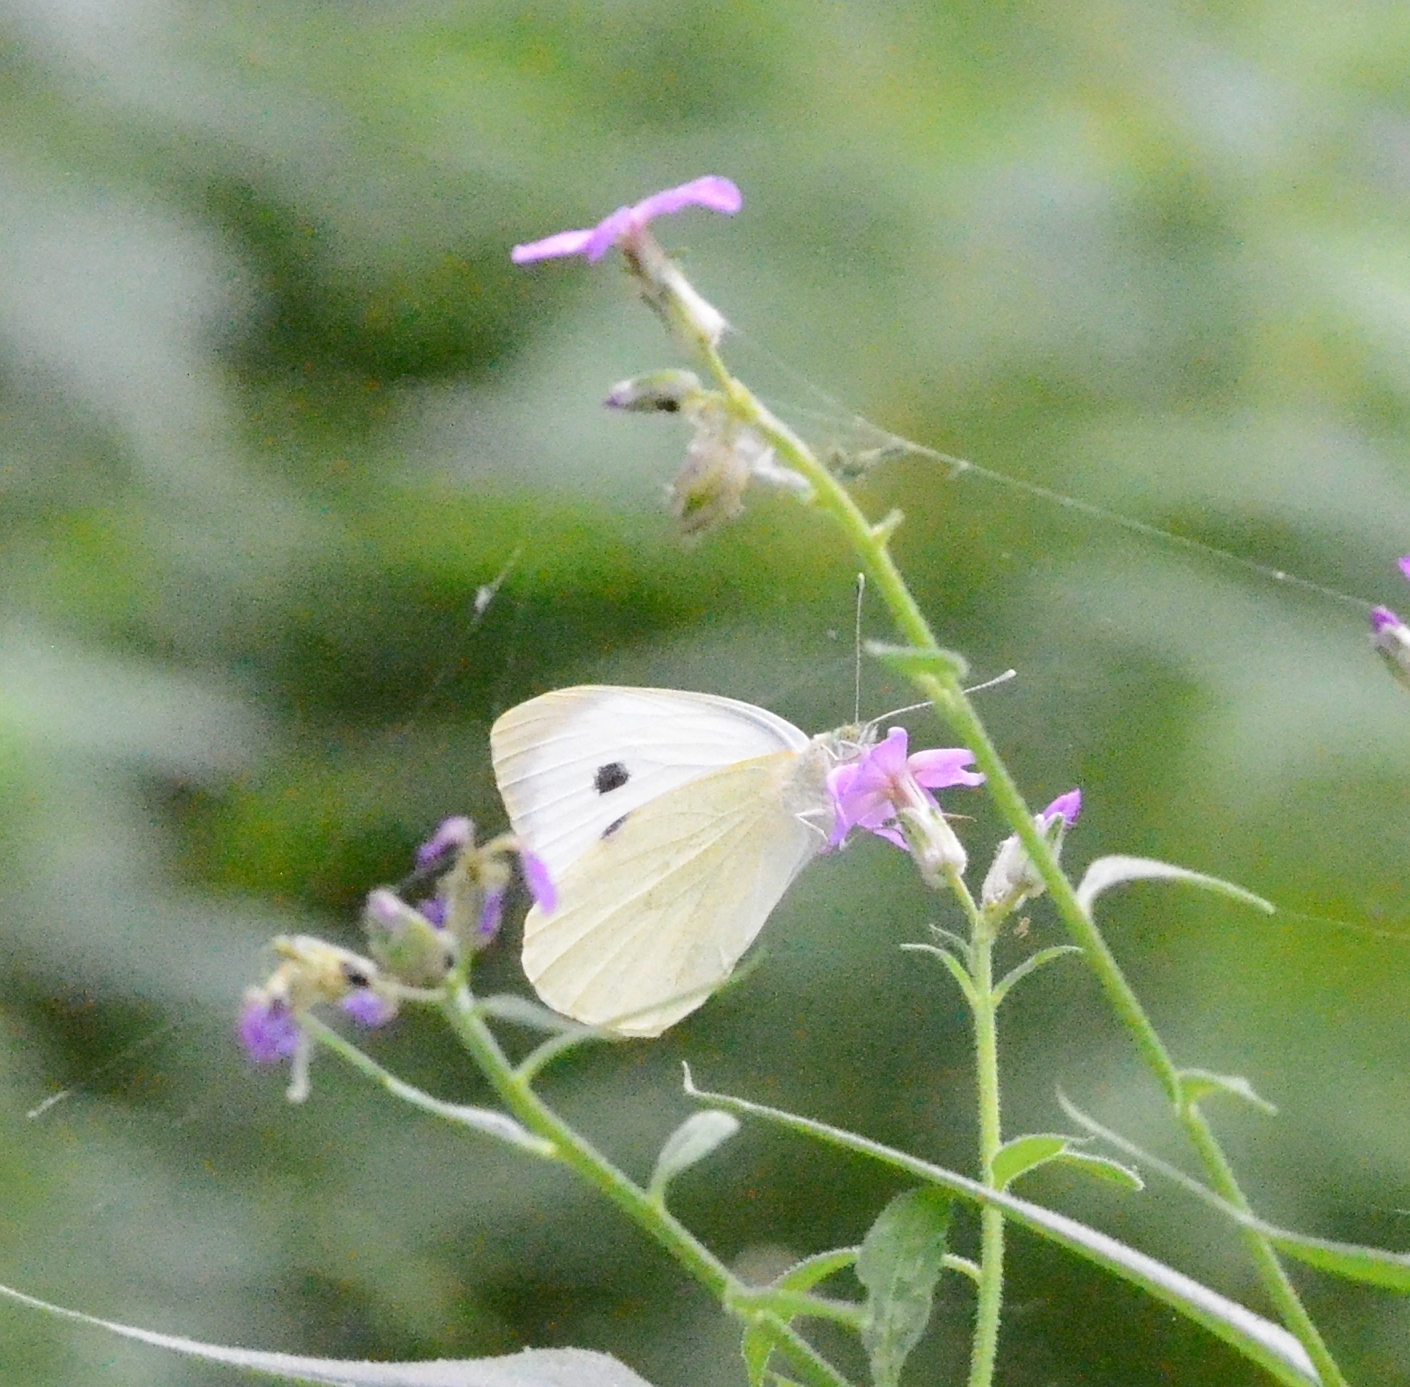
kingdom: Animalia
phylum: Arthropoda
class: Insecta
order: Lepidoptera
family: Pieridae
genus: Pieris
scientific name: Pieris brassicae
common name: Large white
